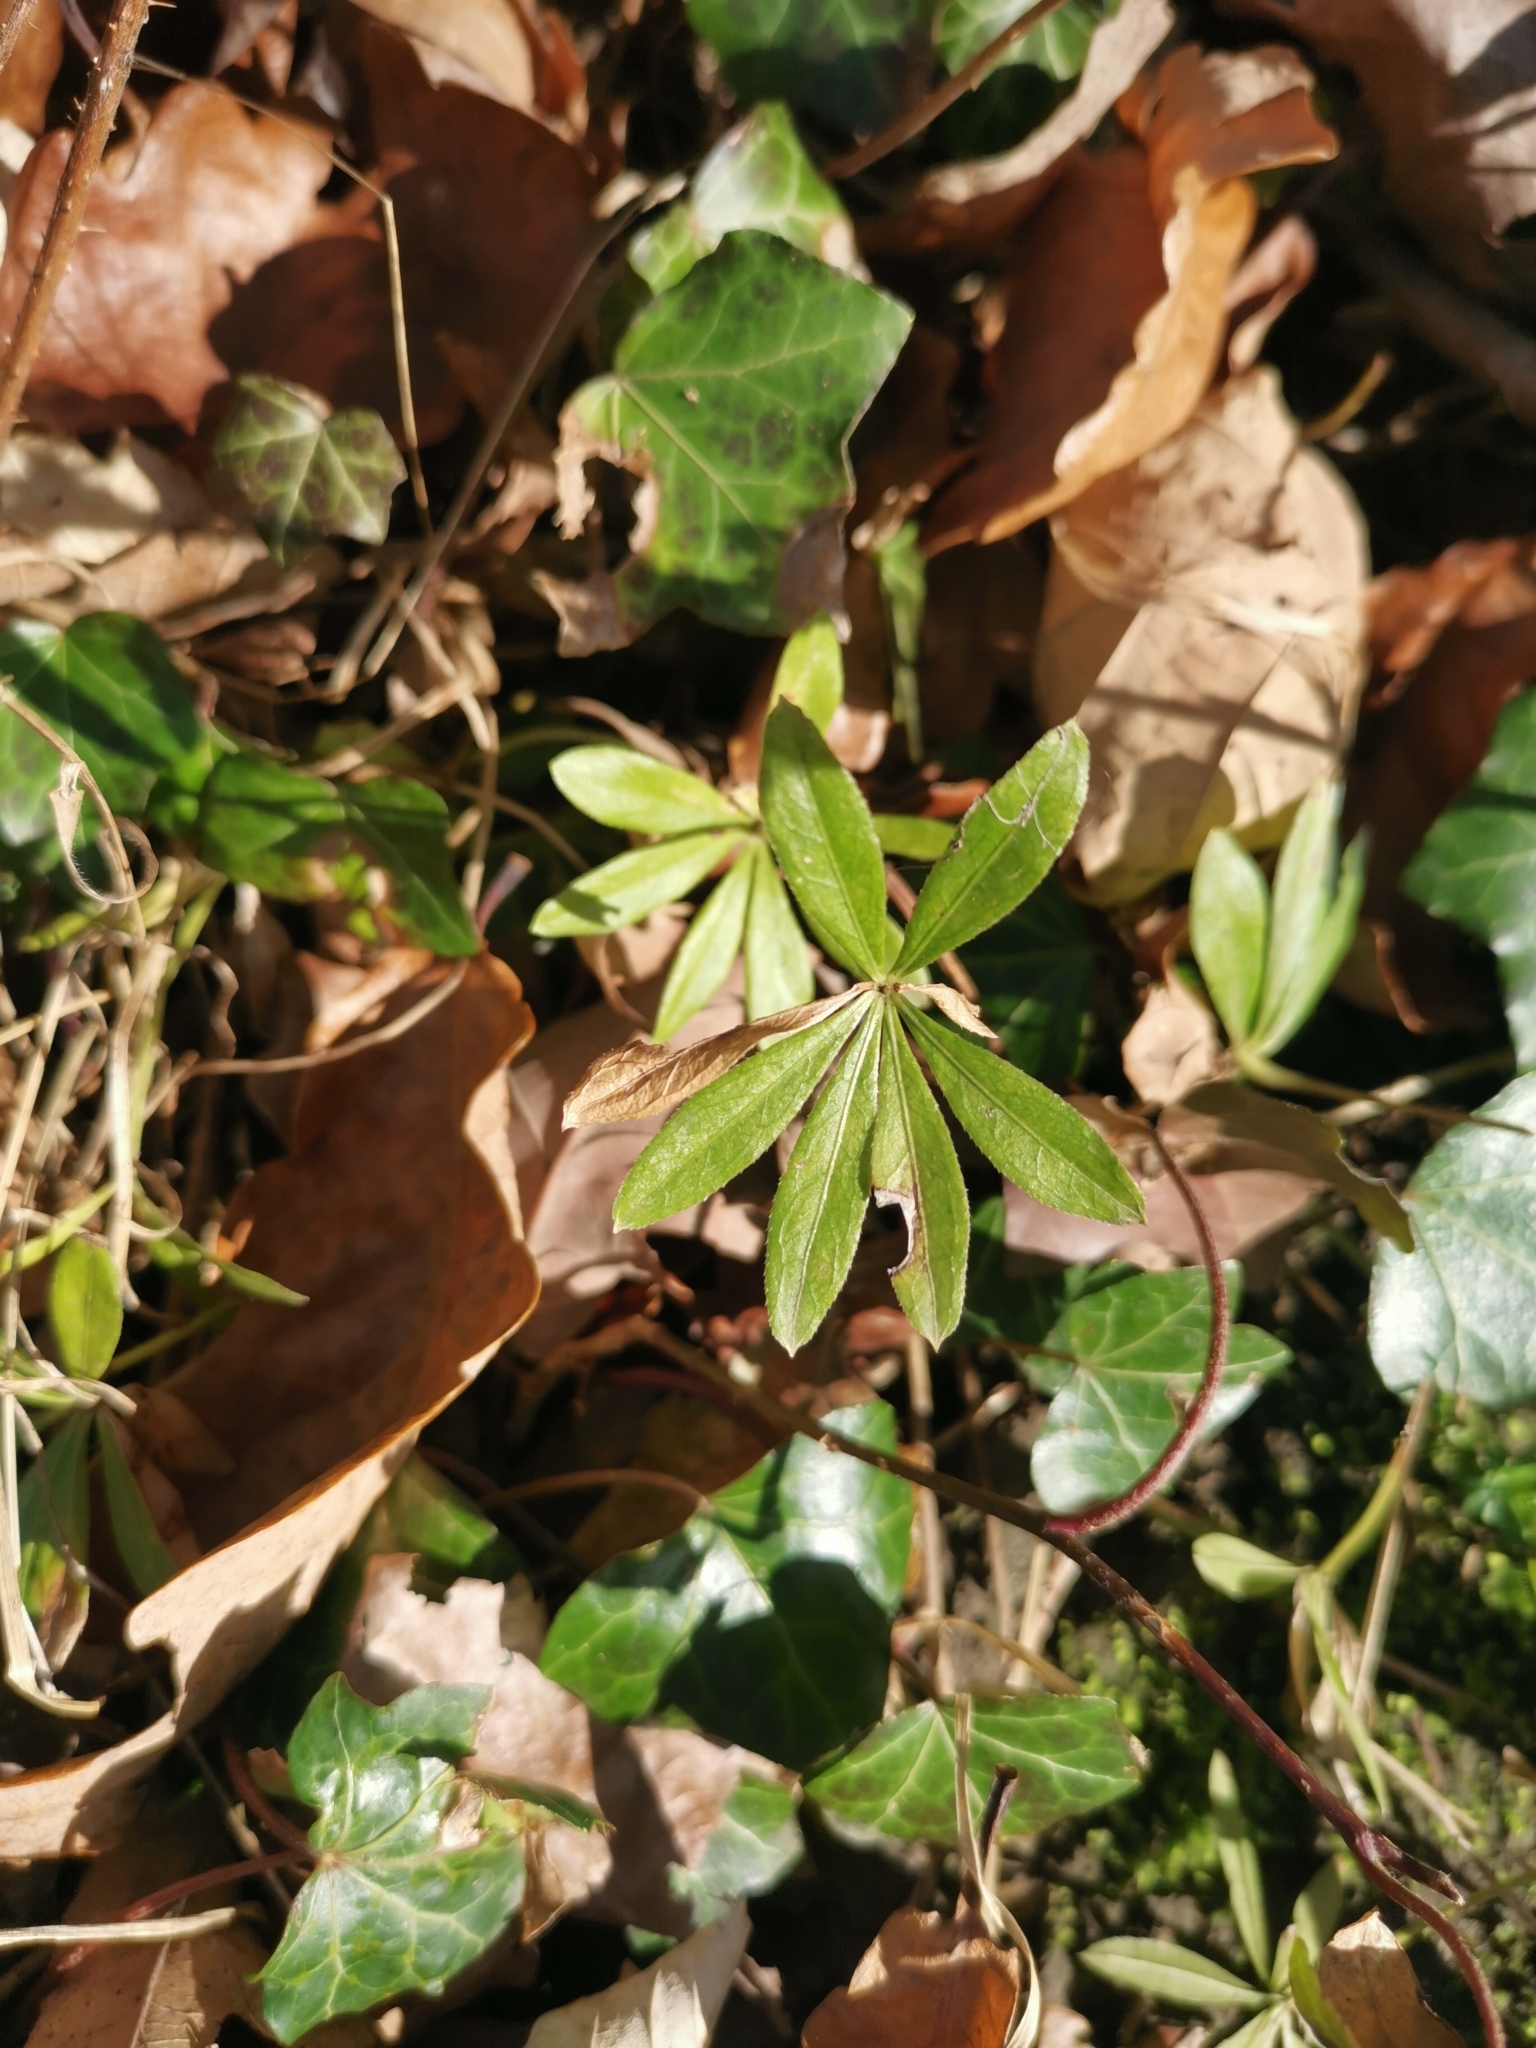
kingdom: Plantae
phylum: Tracheophyta
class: Magnoliopsida
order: Gentianales
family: Rubiaceae
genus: Galium
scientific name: Galium odoratum
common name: Sweet woodruff
